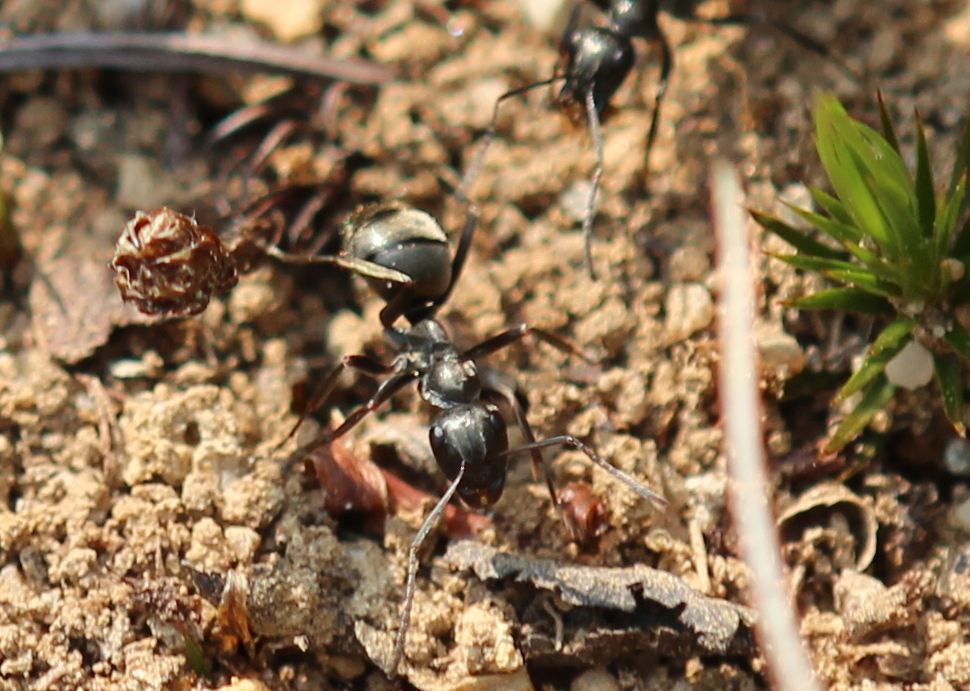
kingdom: Animalia
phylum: Arthropoda
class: Insecta
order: Hymenoptera
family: Formicidae
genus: Formica
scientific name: Formica
